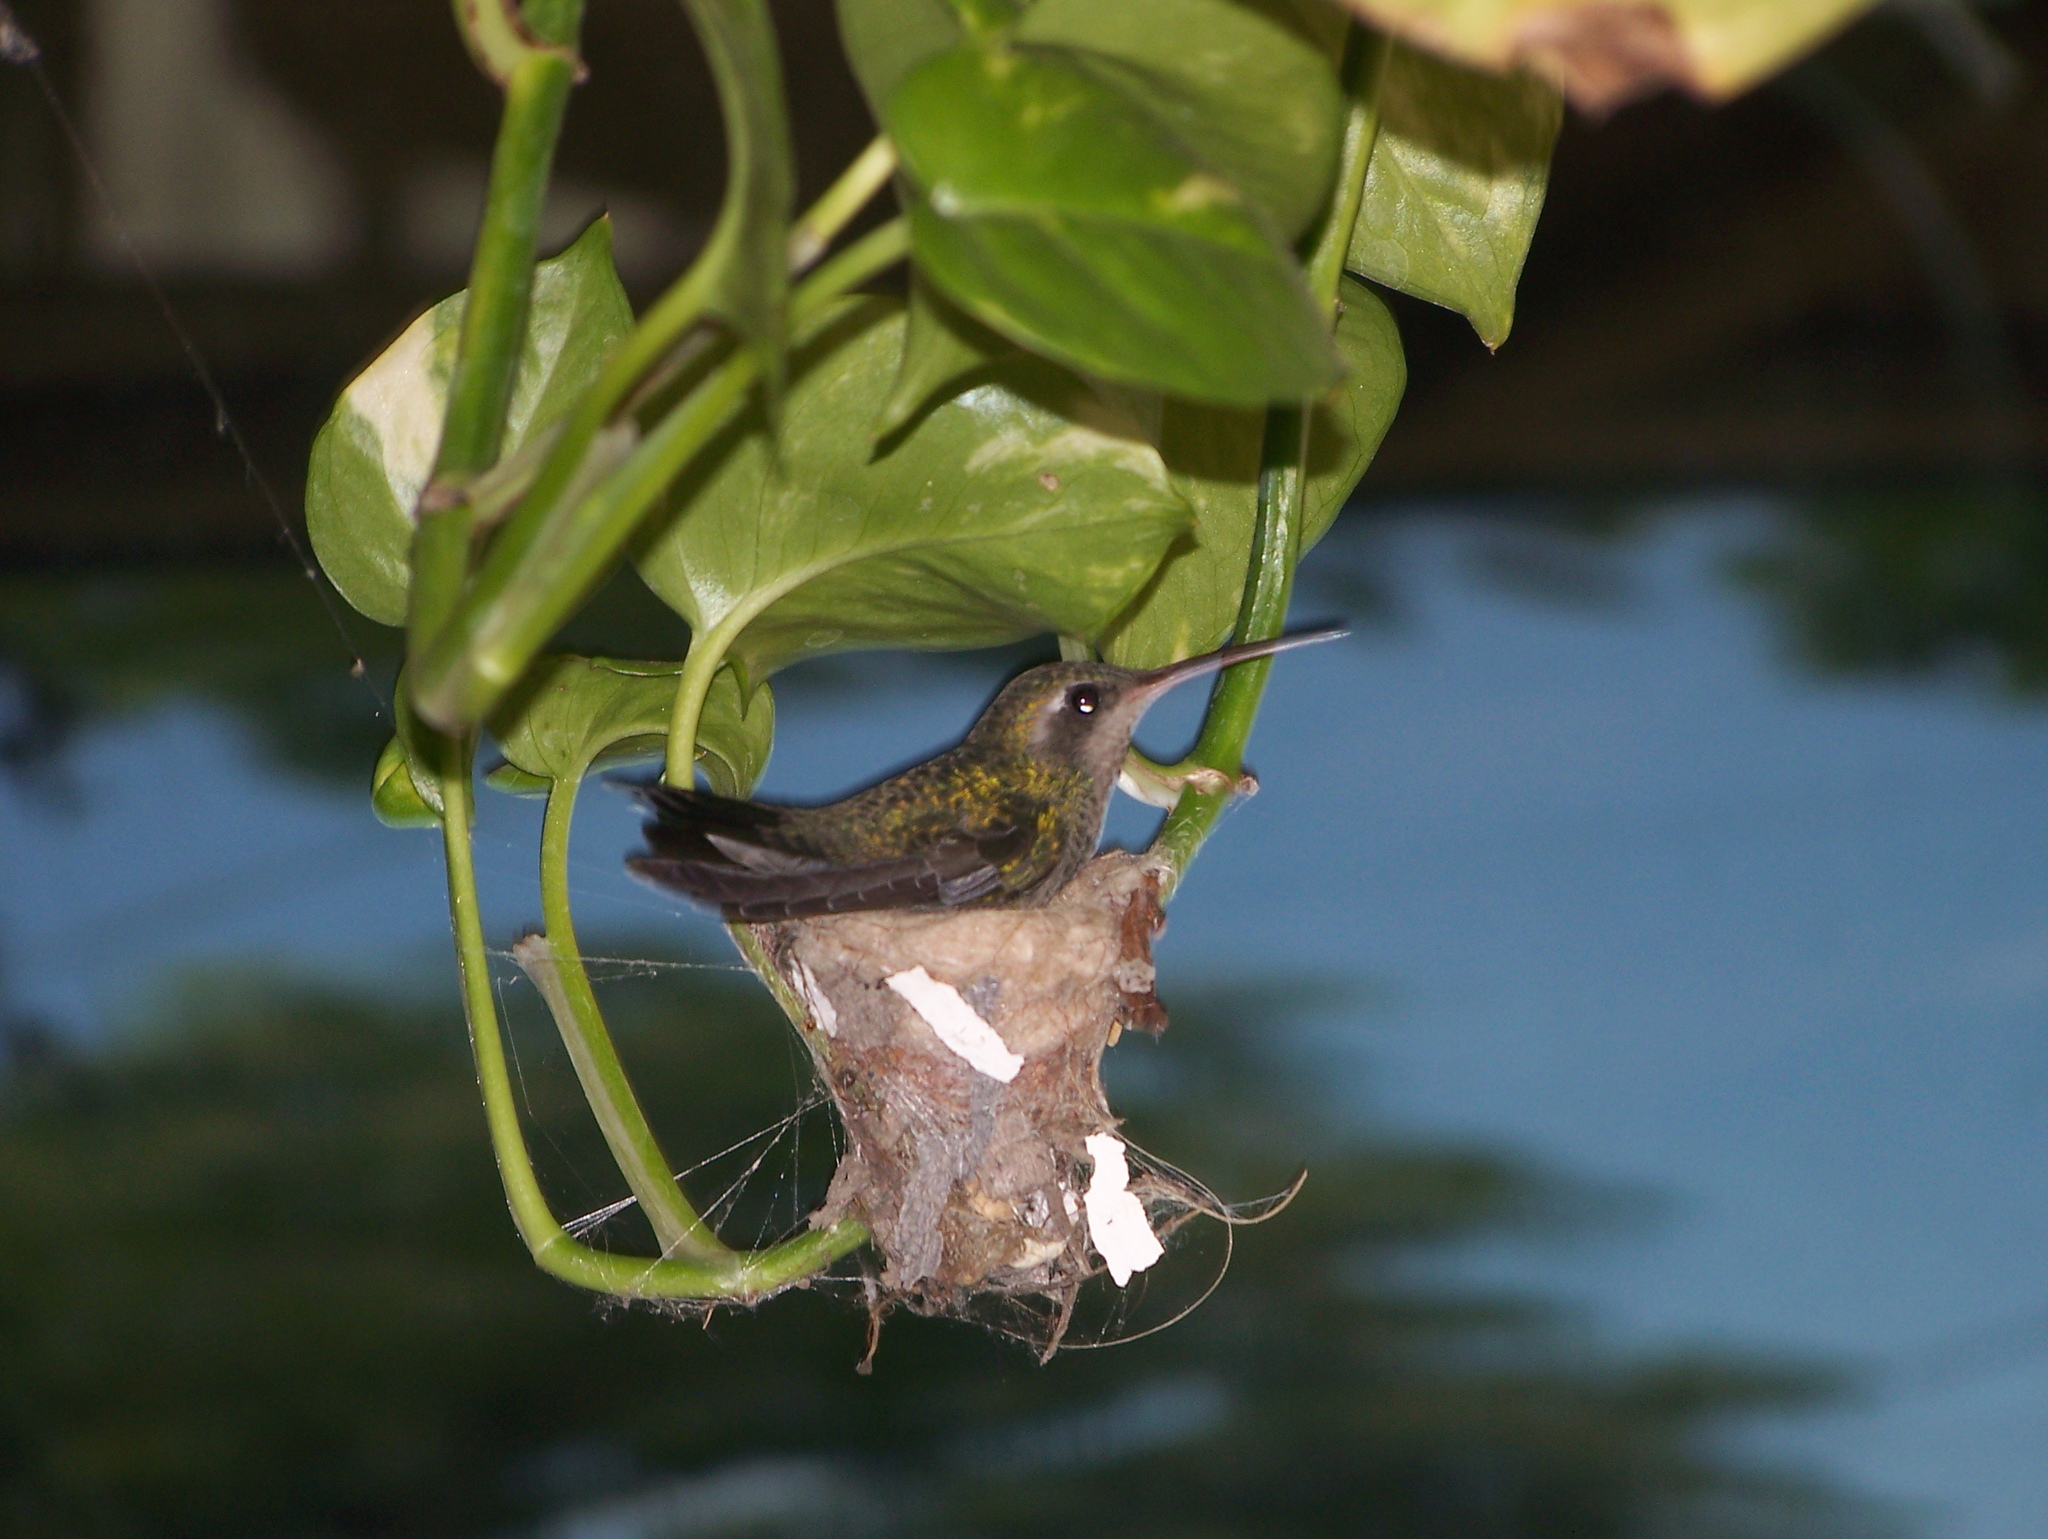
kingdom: Animalia
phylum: Chordata
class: Aves
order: Apodiformes
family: Trochilidae
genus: Cynanthus
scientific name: Cynanthus latirostris
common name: Broad-billed hummingbird
